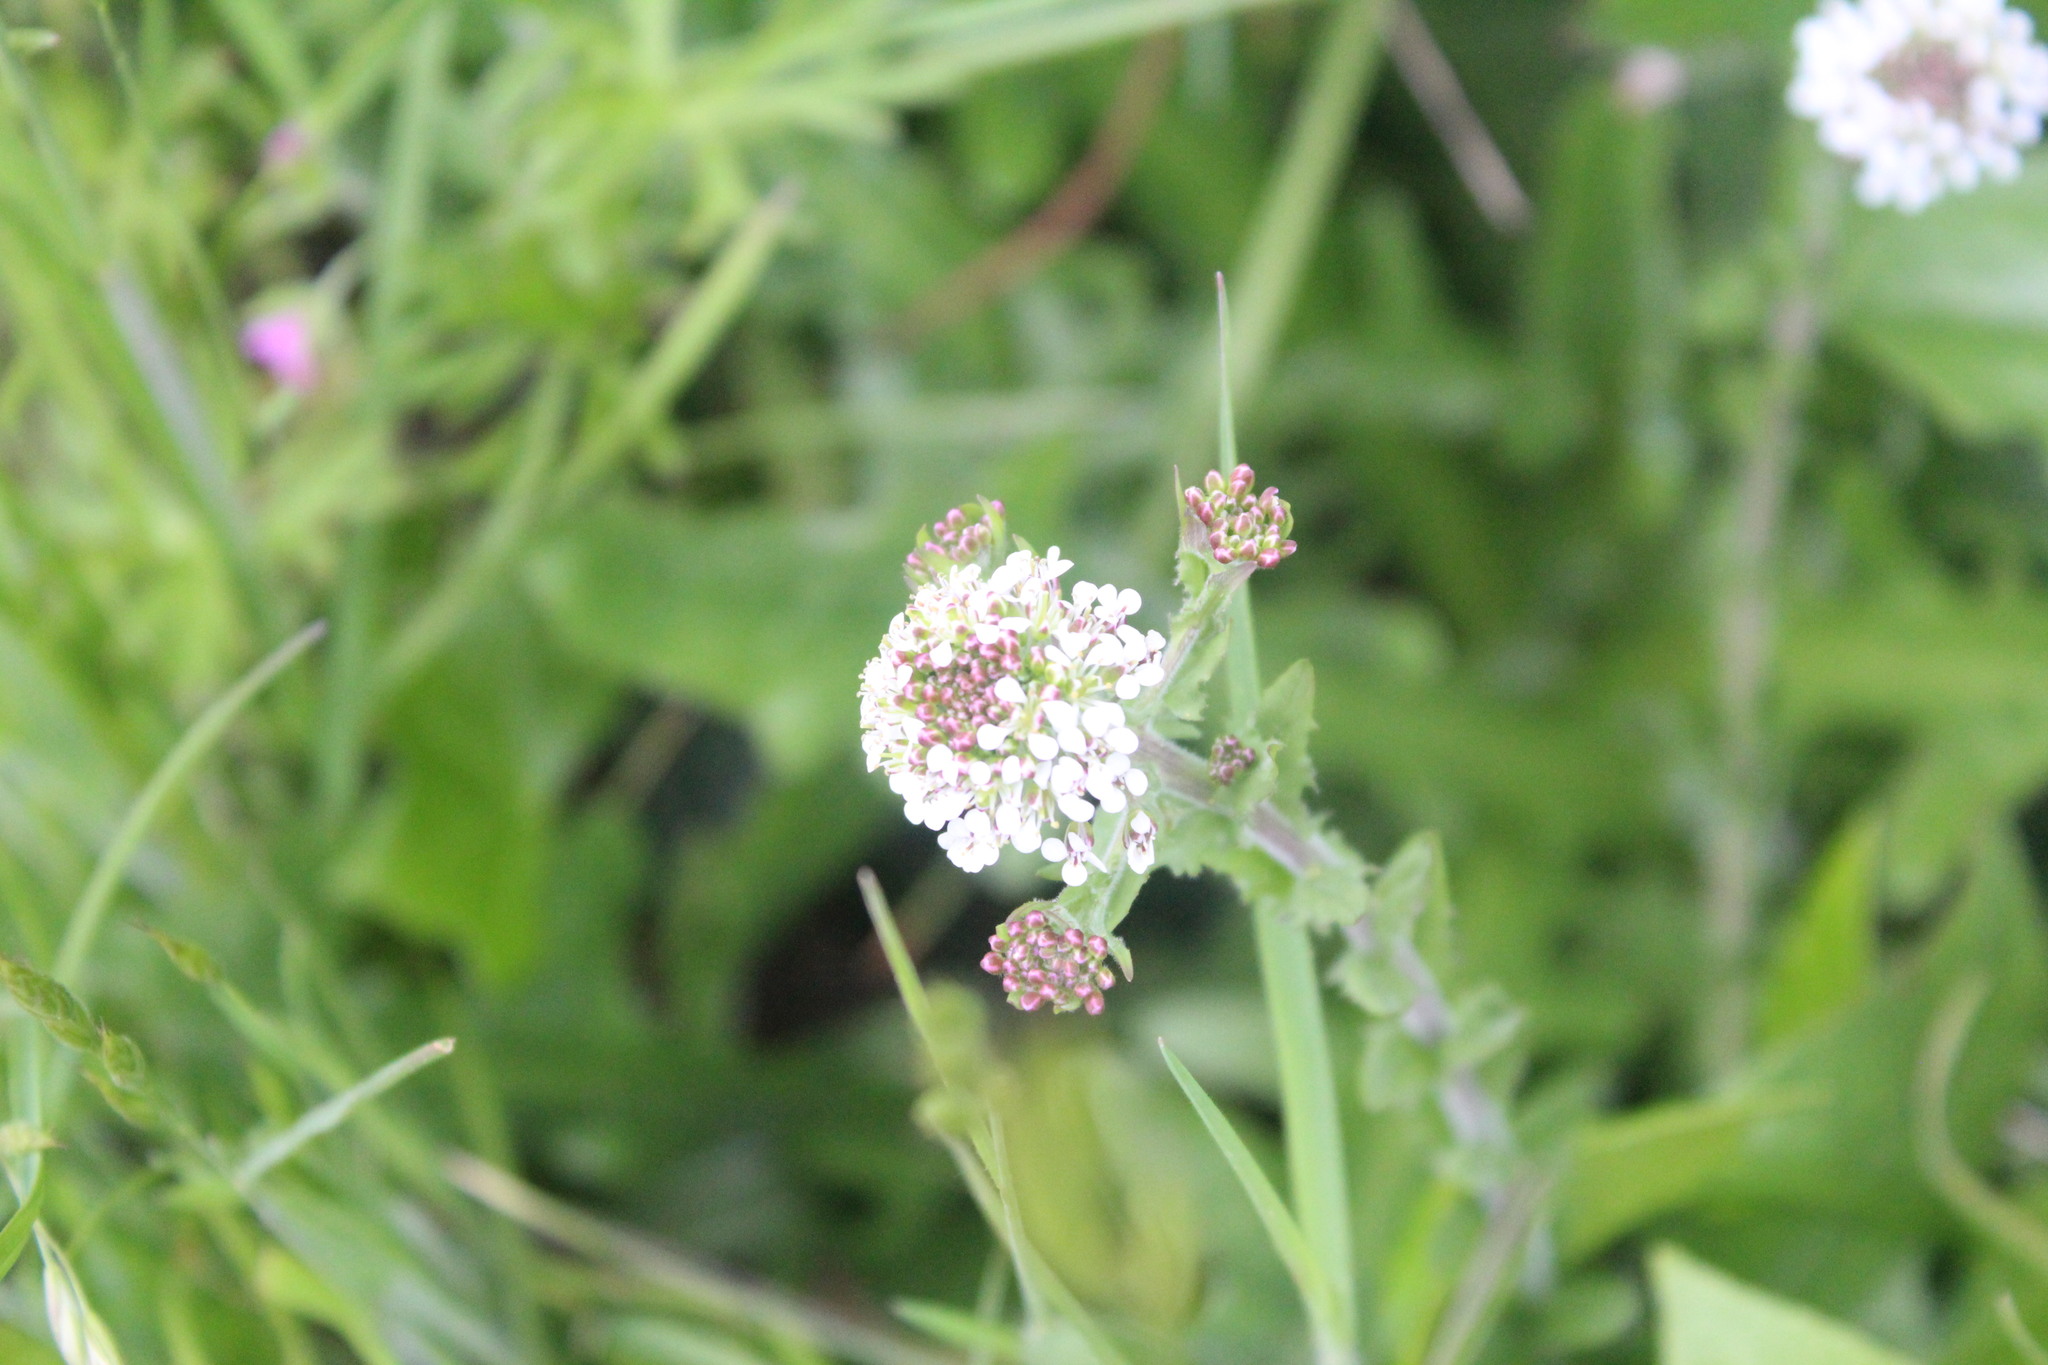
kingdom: Plantae
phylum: Tracheophyta
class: Magnoliopsida
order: Brassicales
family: Brassicaceae
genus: Lepidium
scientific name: Lepidium campestre
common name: Field pepperwort
